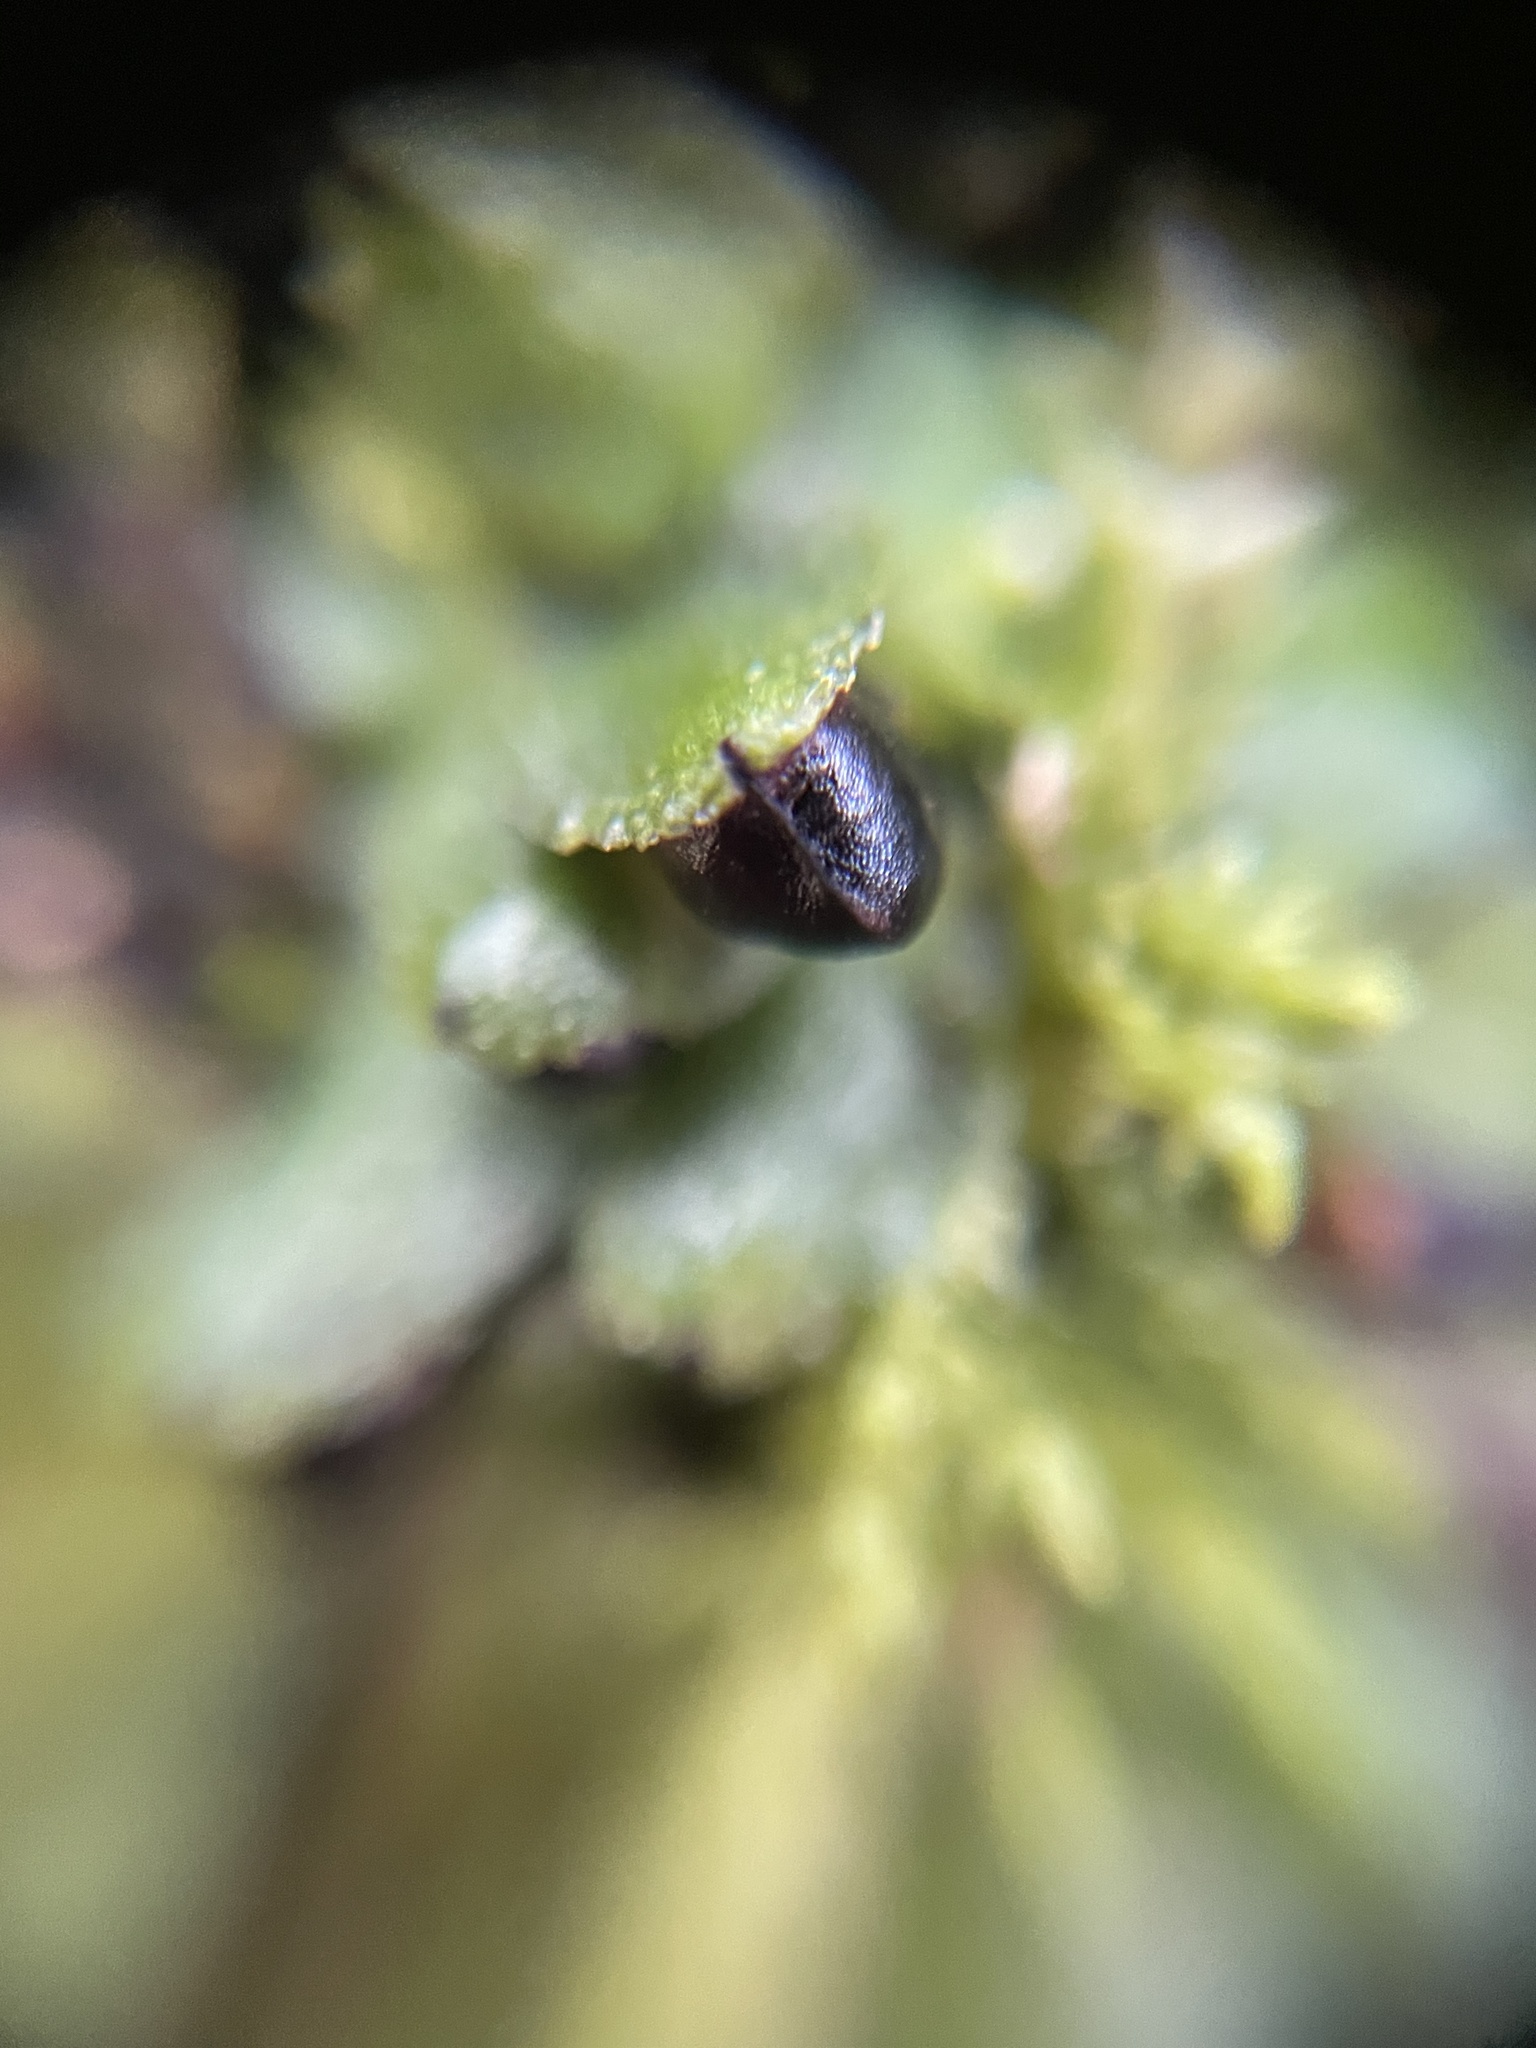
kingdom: Plantae
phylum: Marchantiophyta
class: Marchantiopsida
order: Marchantiales
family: Targioniaceae
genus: Targionia
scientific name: Targionia hypophylla
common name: Orobus-seed liverwort
